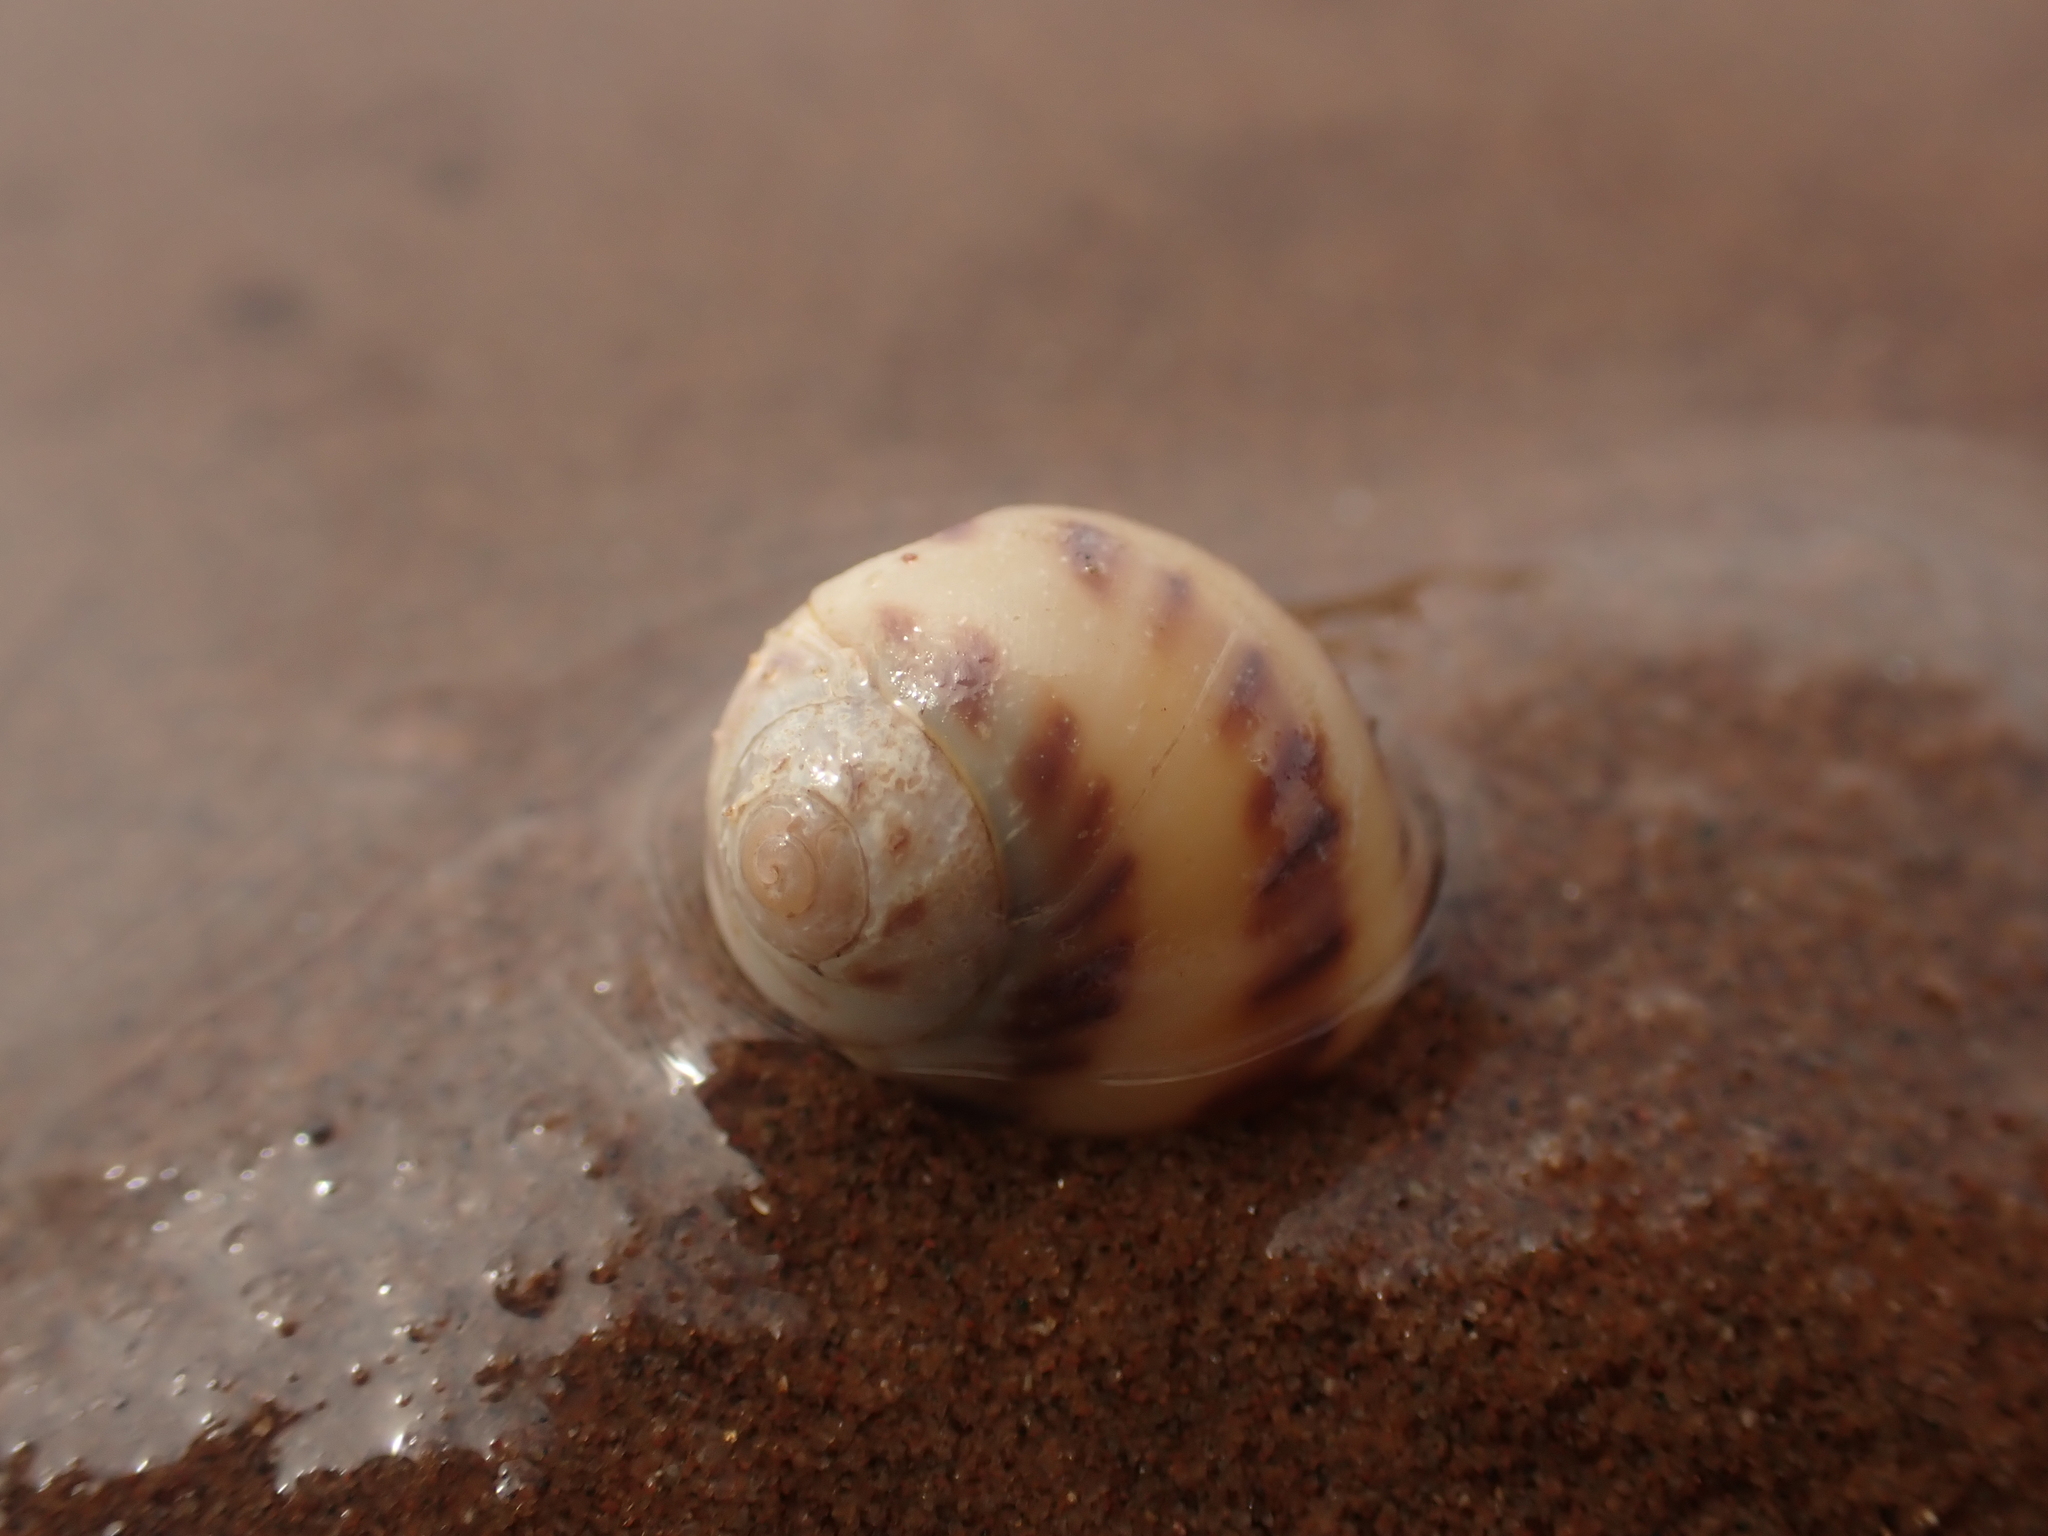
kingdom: Animalia
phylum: Mollusca
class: Gastropoda
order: Littorinimorpha
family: Naticidae
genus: Euspira
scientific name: Euspira triseriata
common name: Spotted moonsnail
